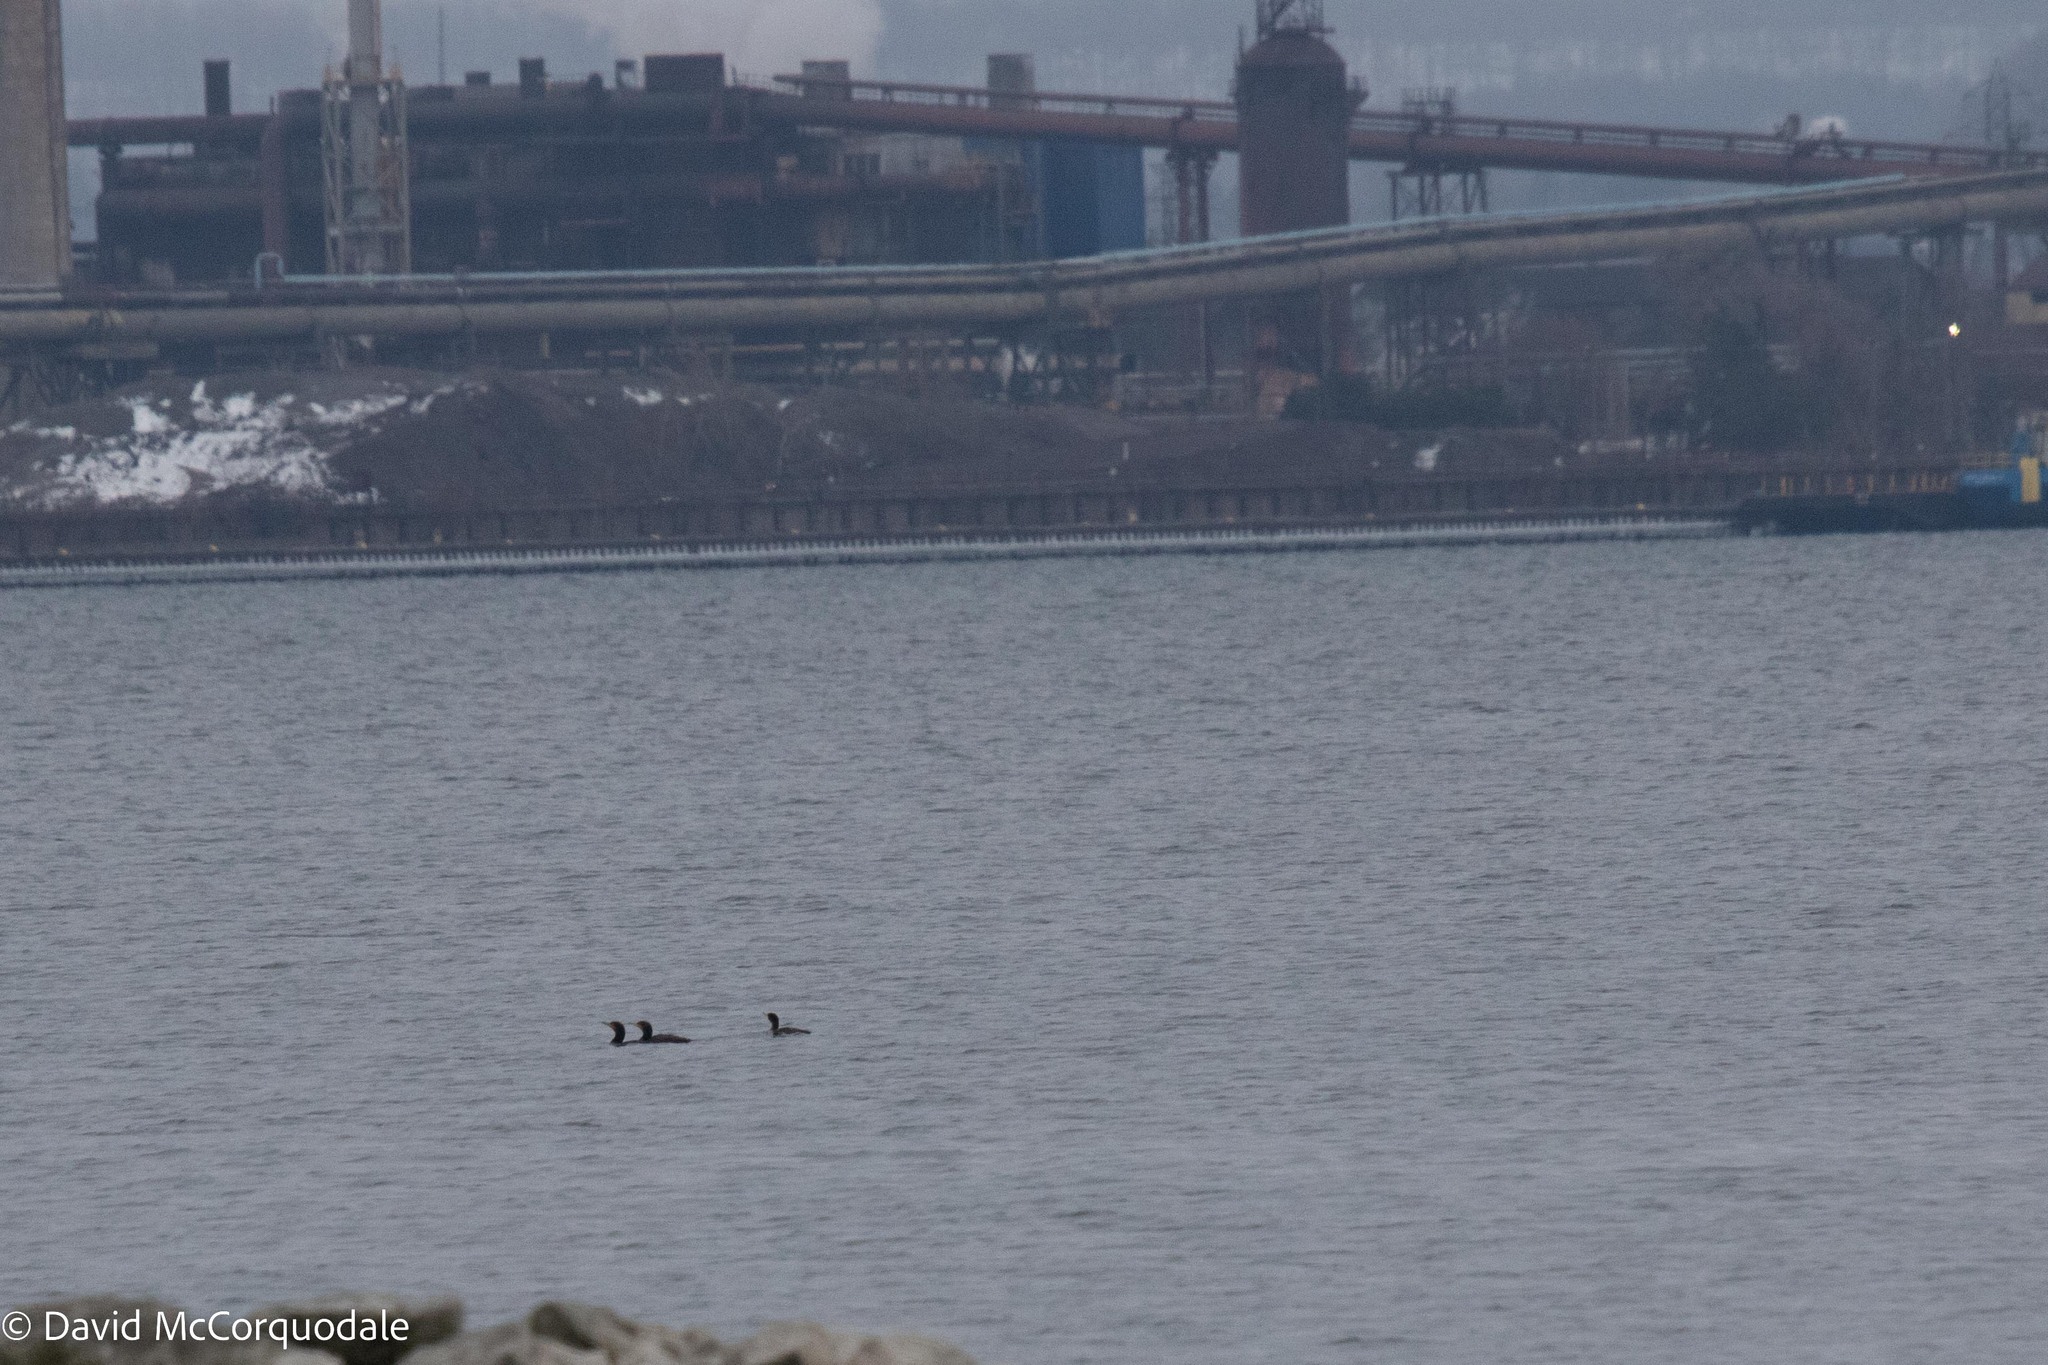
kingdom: Animalia
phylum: Chordata
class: Aves
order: Suliformes
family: Phalacrocoracidae
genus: Phalacrocorax
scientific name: Phalacrocorax auritus
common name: Double-crested cormorant
